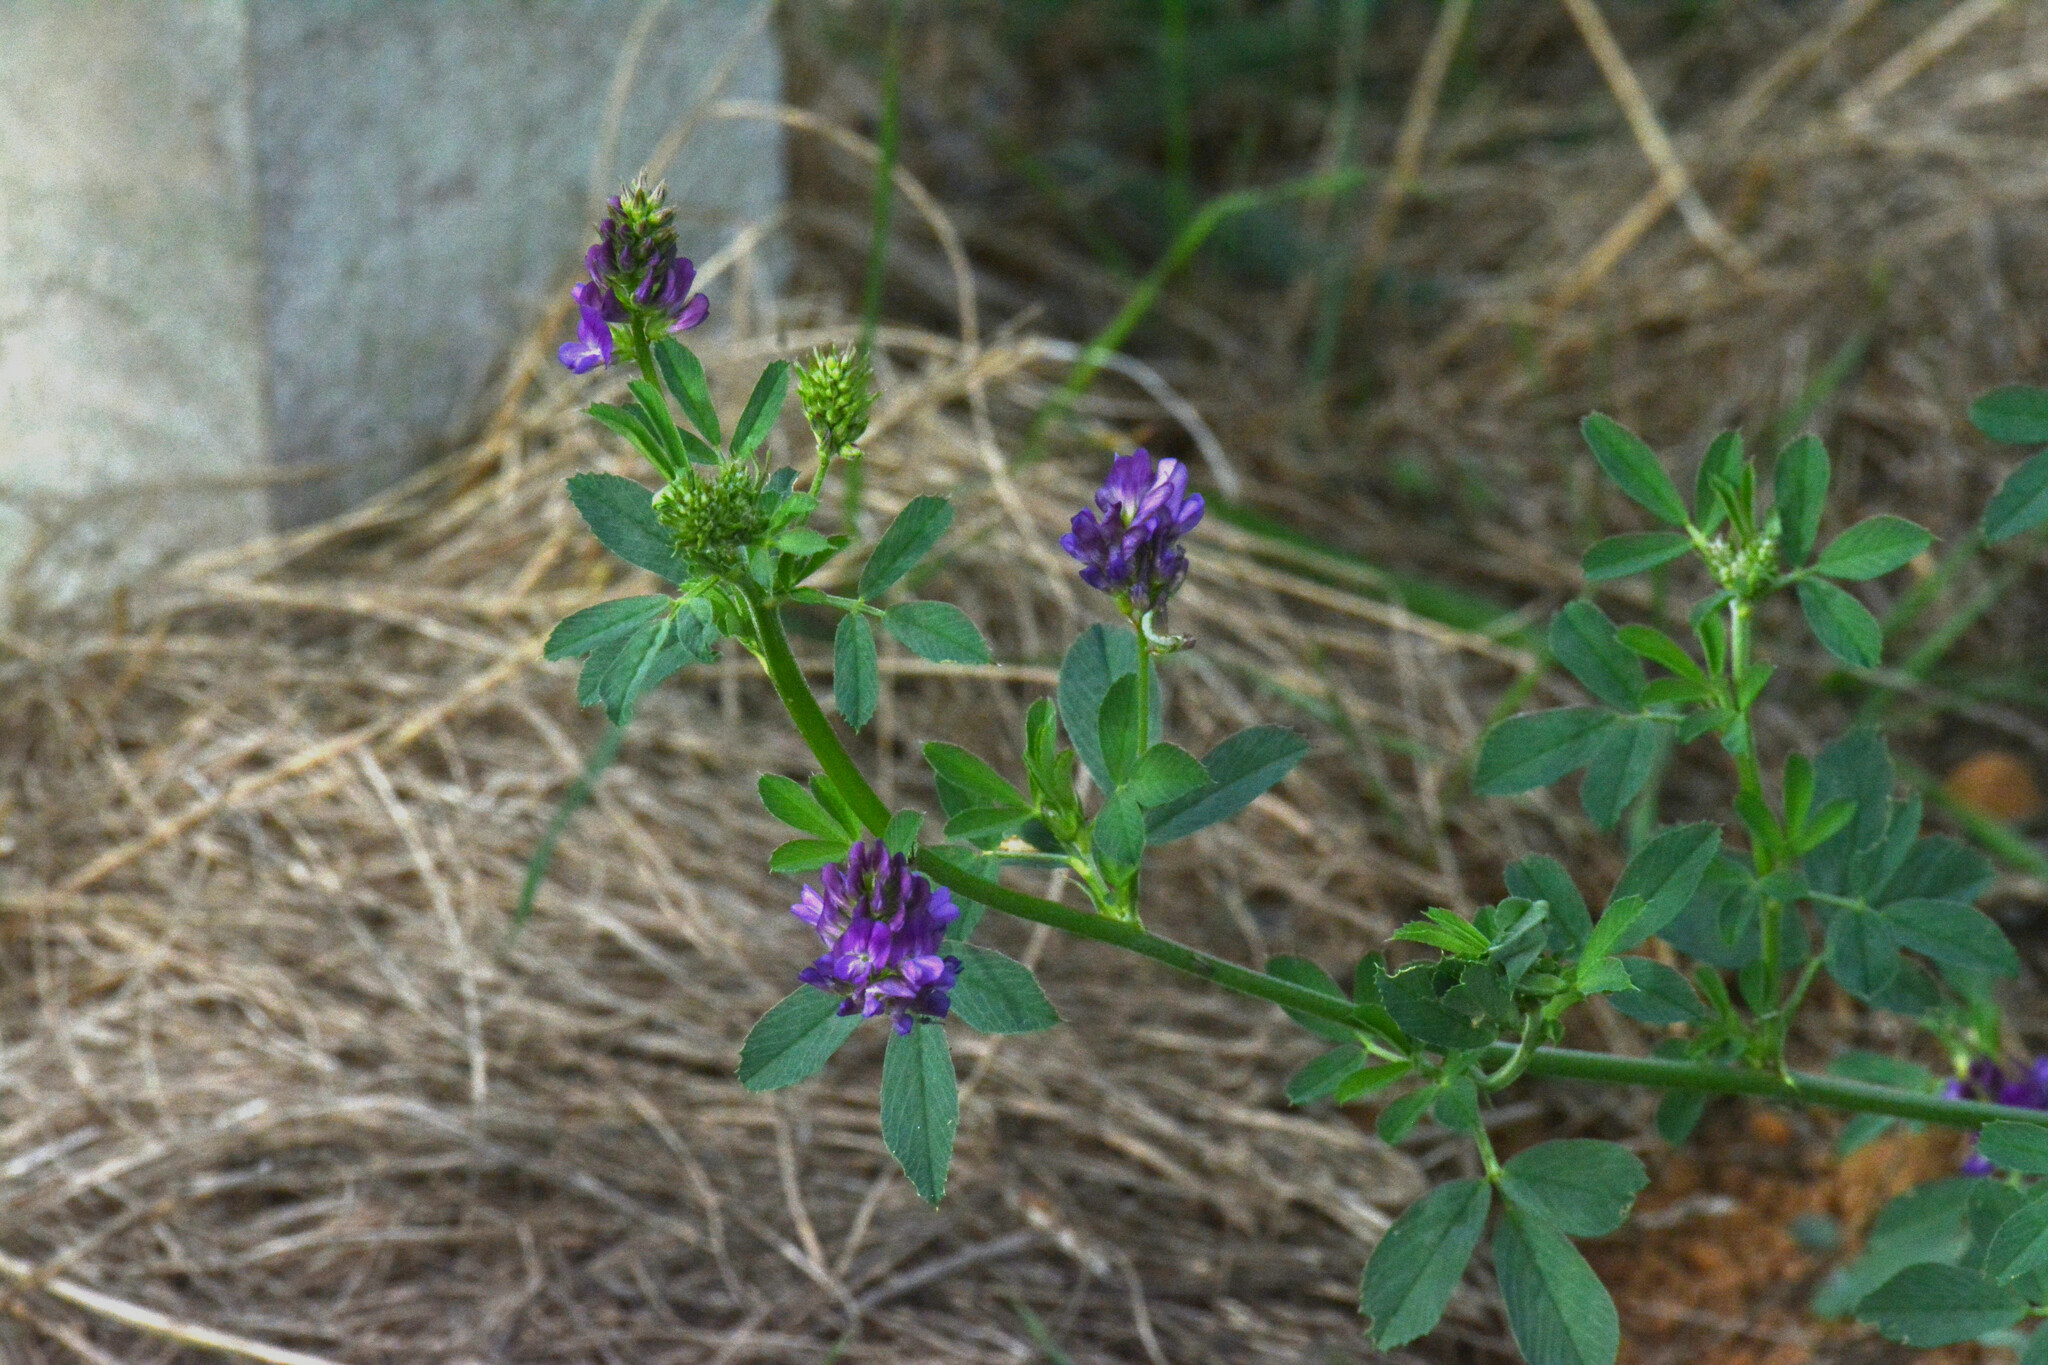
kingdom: Plantae
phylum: Tracheophyta
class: Magnoliopsida
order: Fabales
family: Fabaceae
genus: Medicago
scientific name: Medicago sativa
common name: Alfalfa
